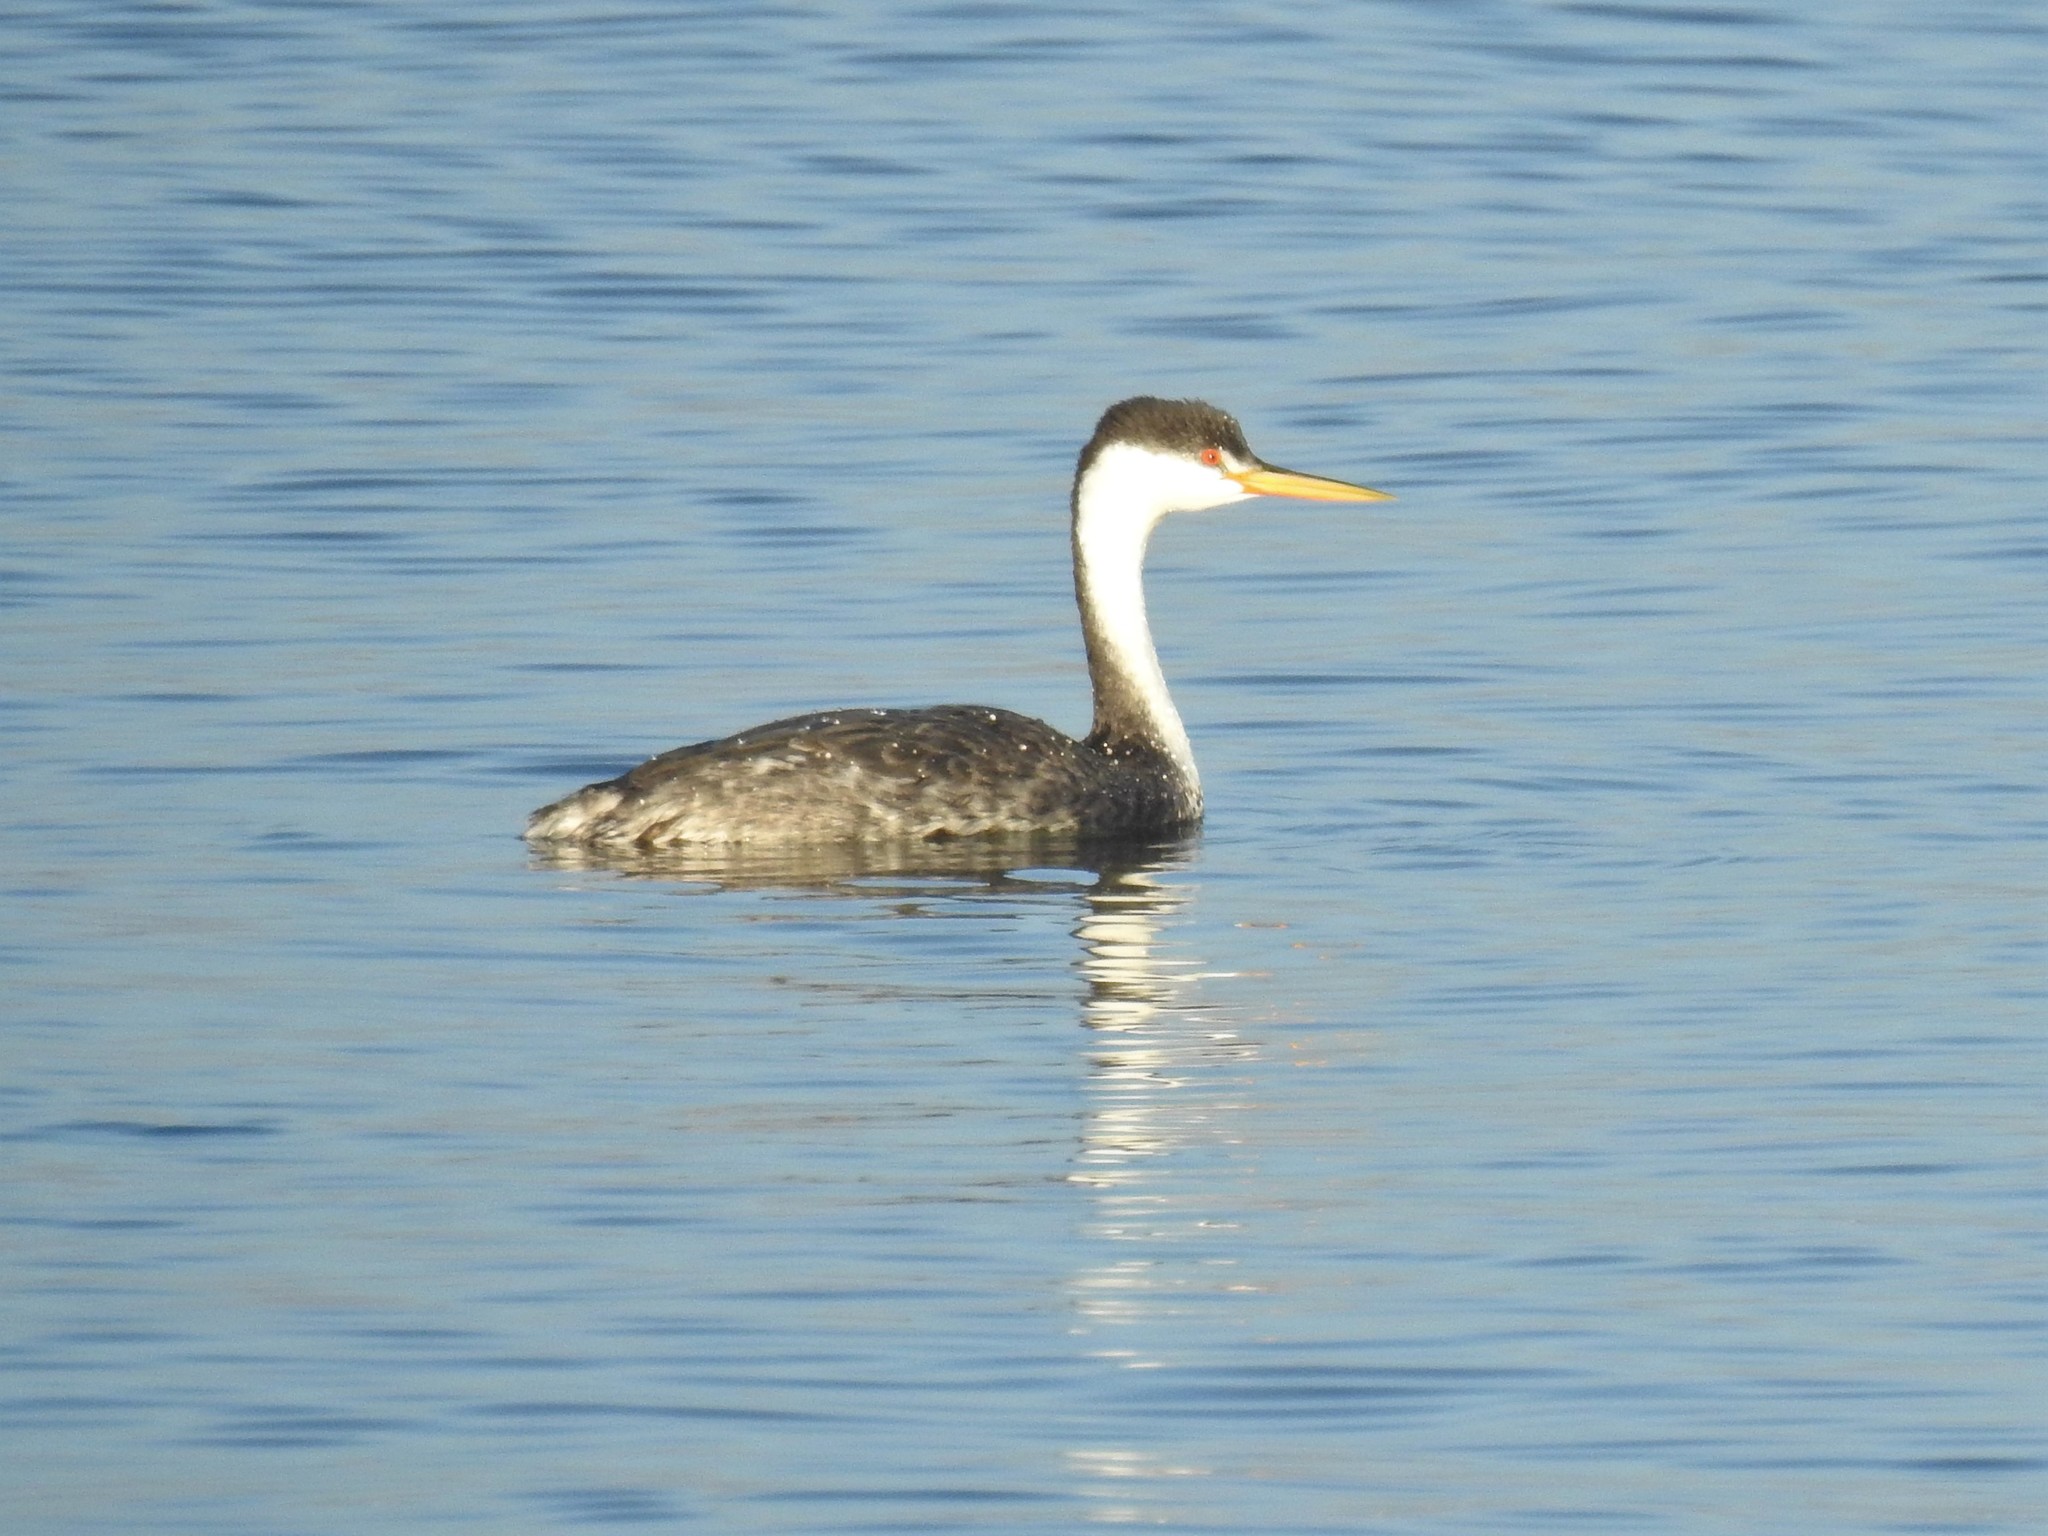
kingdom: Animalia
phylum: Chordata
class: Aves
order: Podicipediformes
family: Podicipedidae
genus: Aechmophorus
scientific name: Aechmophorus occidentalis
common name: Western grebe
